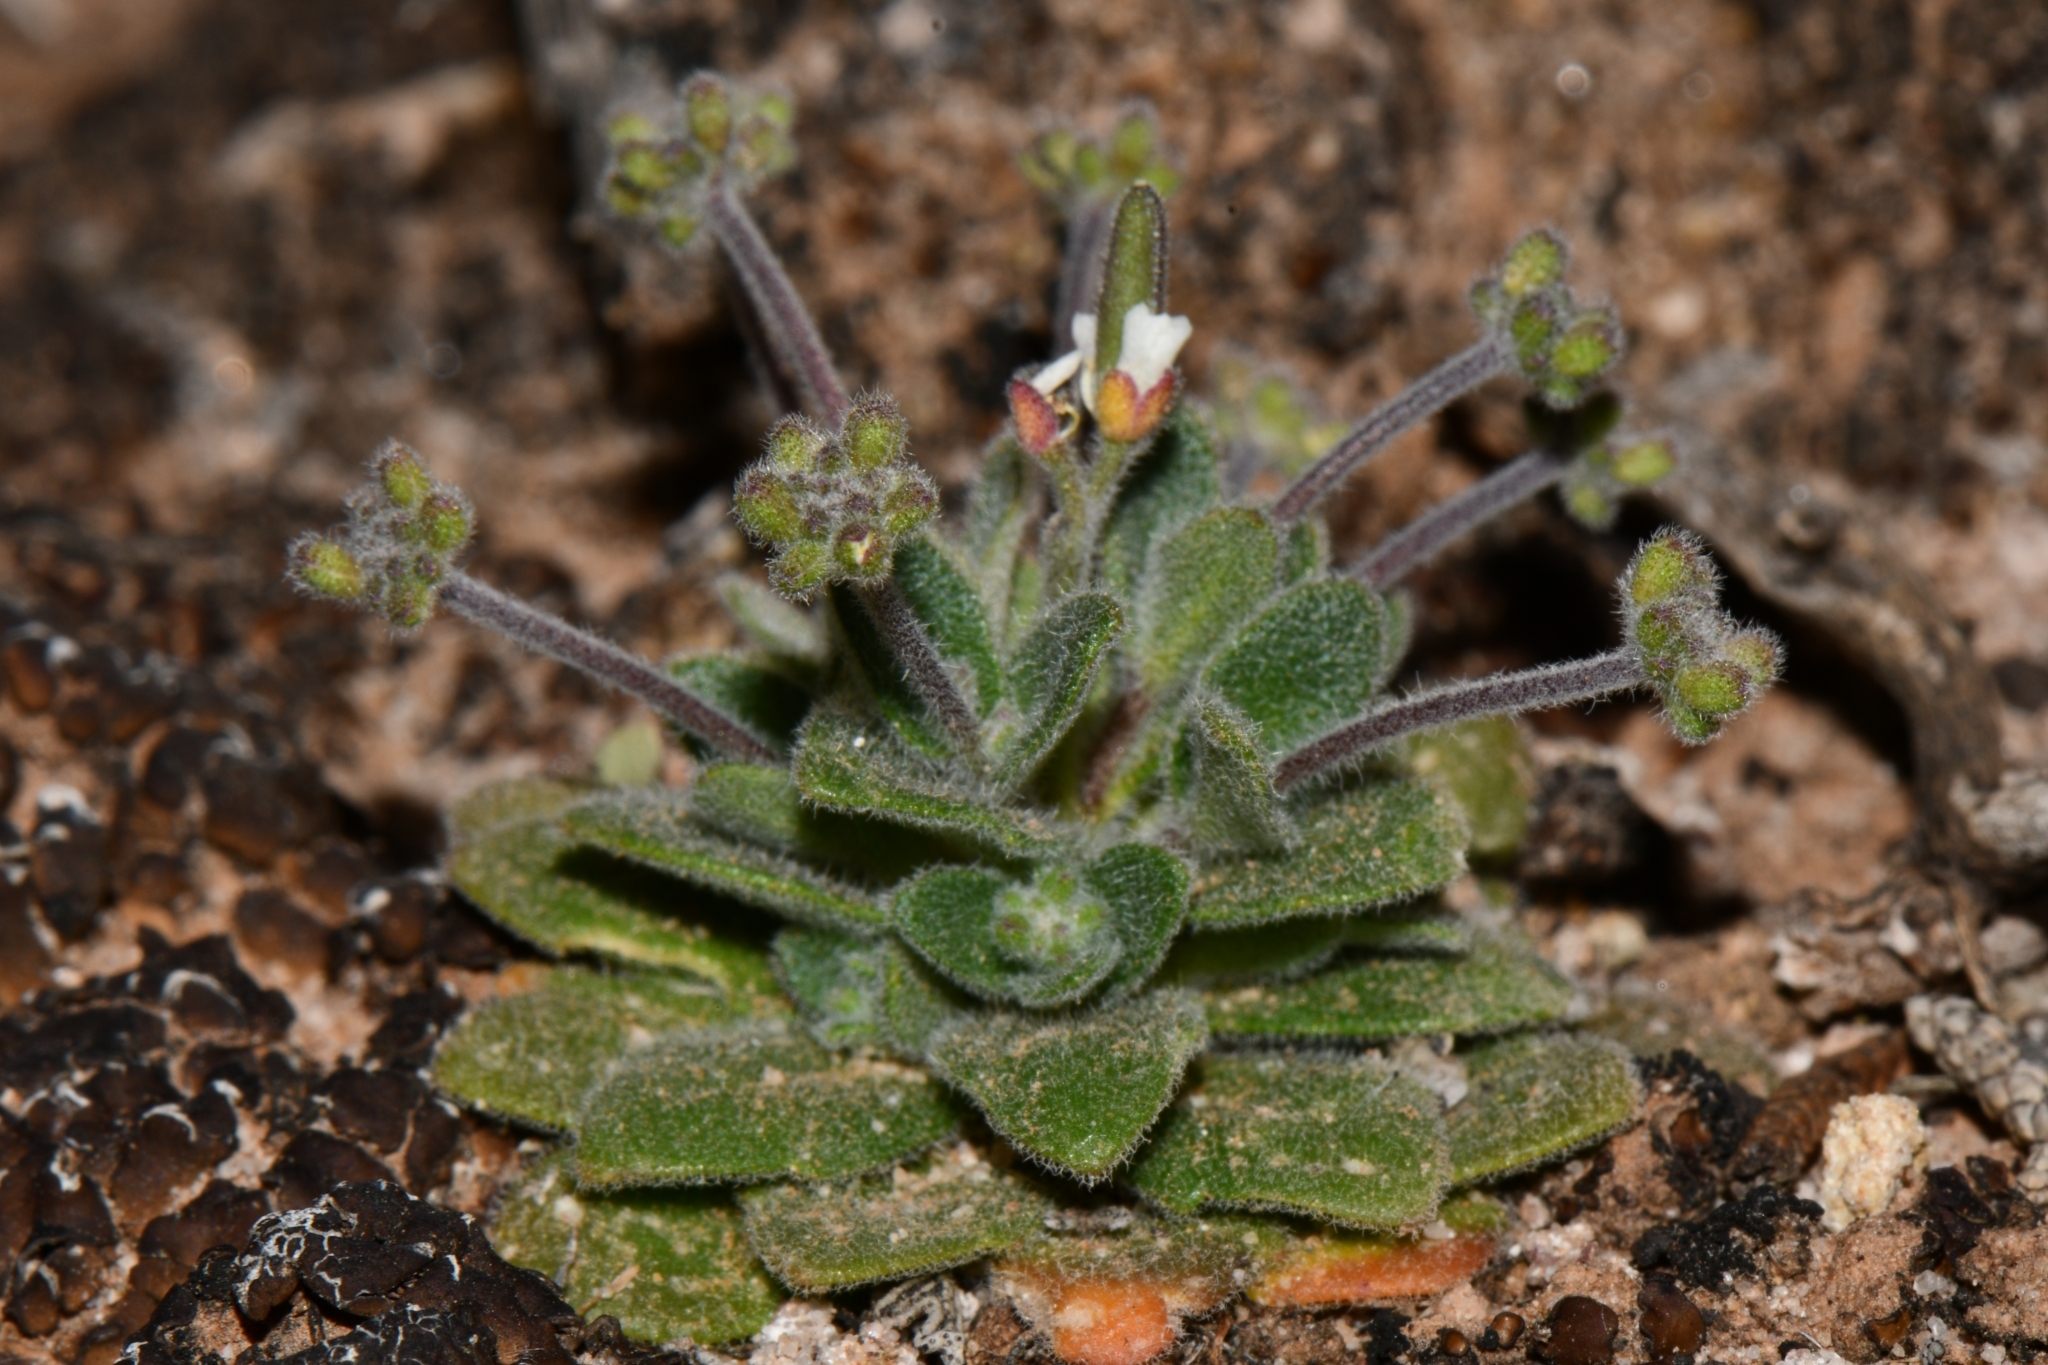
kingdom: Plantae
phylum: Tracheophyta
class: Magnoliopsida
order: Brassicales
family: Brassicaceae
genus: Tomostima
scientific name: Tomostima cuneifolia
